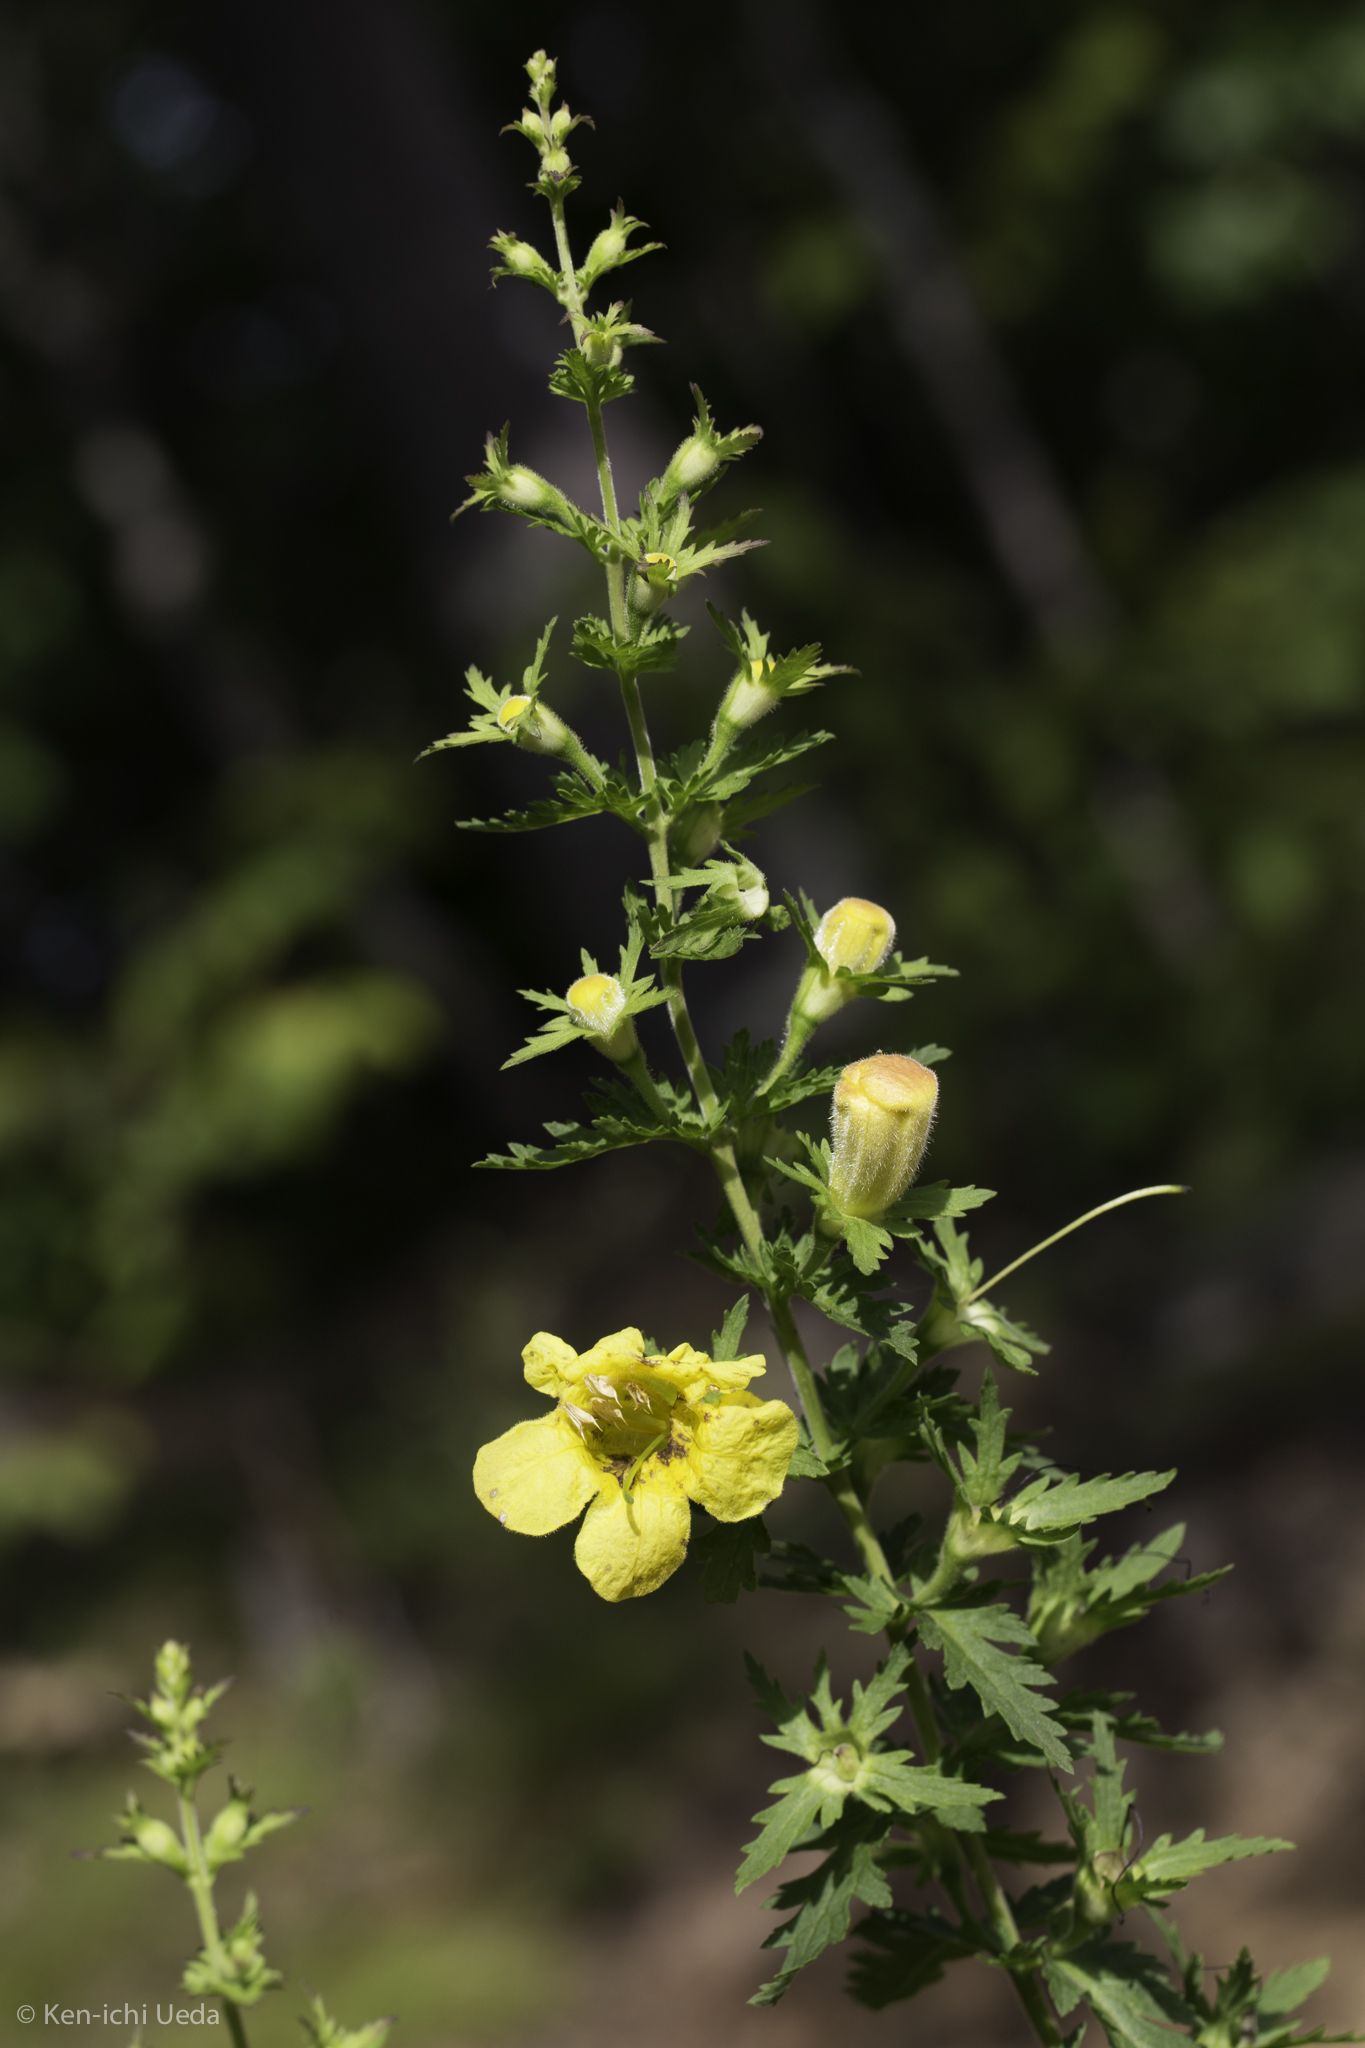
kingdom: Plantae
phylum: Tracheophyta
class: Magnoliopsida
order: Lamiales
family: Orobanchaceae
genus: Aureolaria
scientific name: Aureolaria pedicularia
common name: Annual false foxglove
